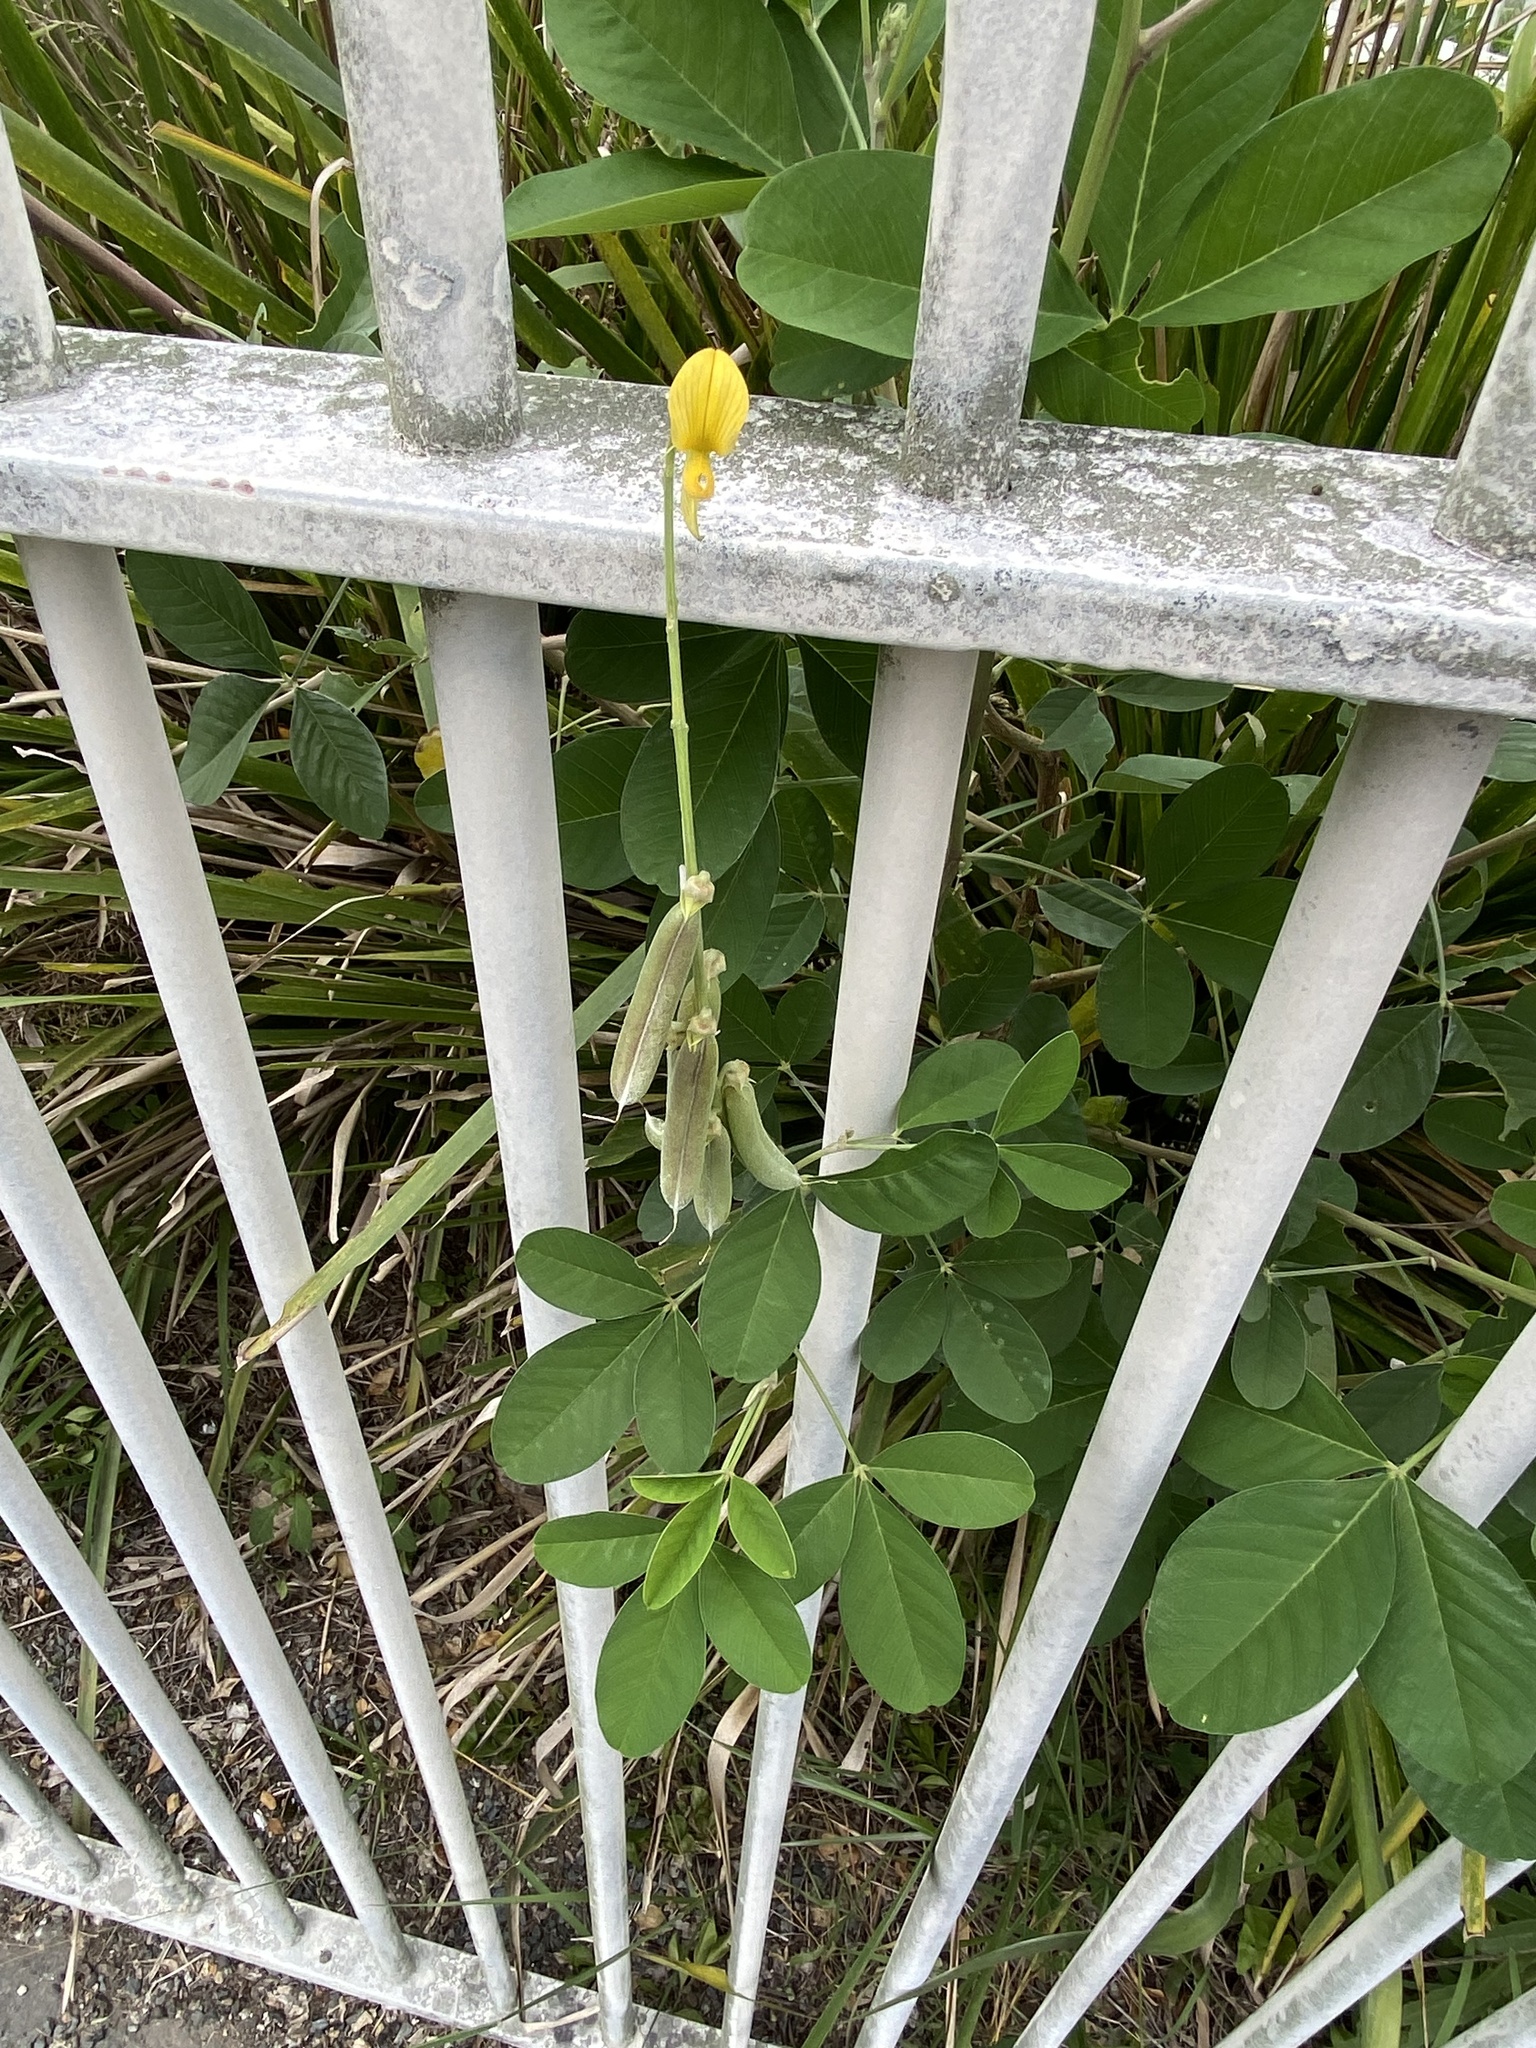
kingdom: Plantae
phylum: Tracheophyta
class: Magnoliopsida
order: Fabales
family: Fabaceae
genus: Crotalaria
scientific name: Crotalaria pallida
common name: Smooth rattlebox
